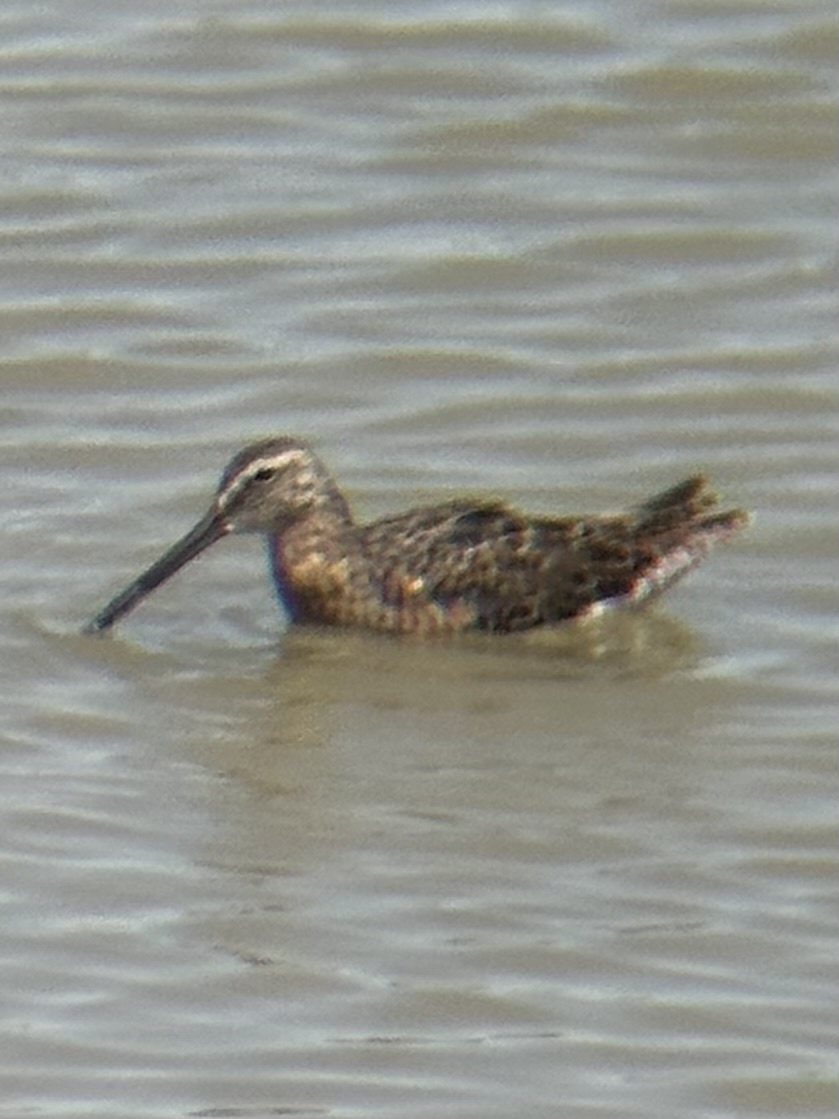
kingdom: Animalia
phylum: Chordata
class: Aves
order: Charadriiformes
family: Scolopacidae
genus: Limnodromus
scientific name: Limnodromus scolopaceus
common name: Long-billed dowitcher
